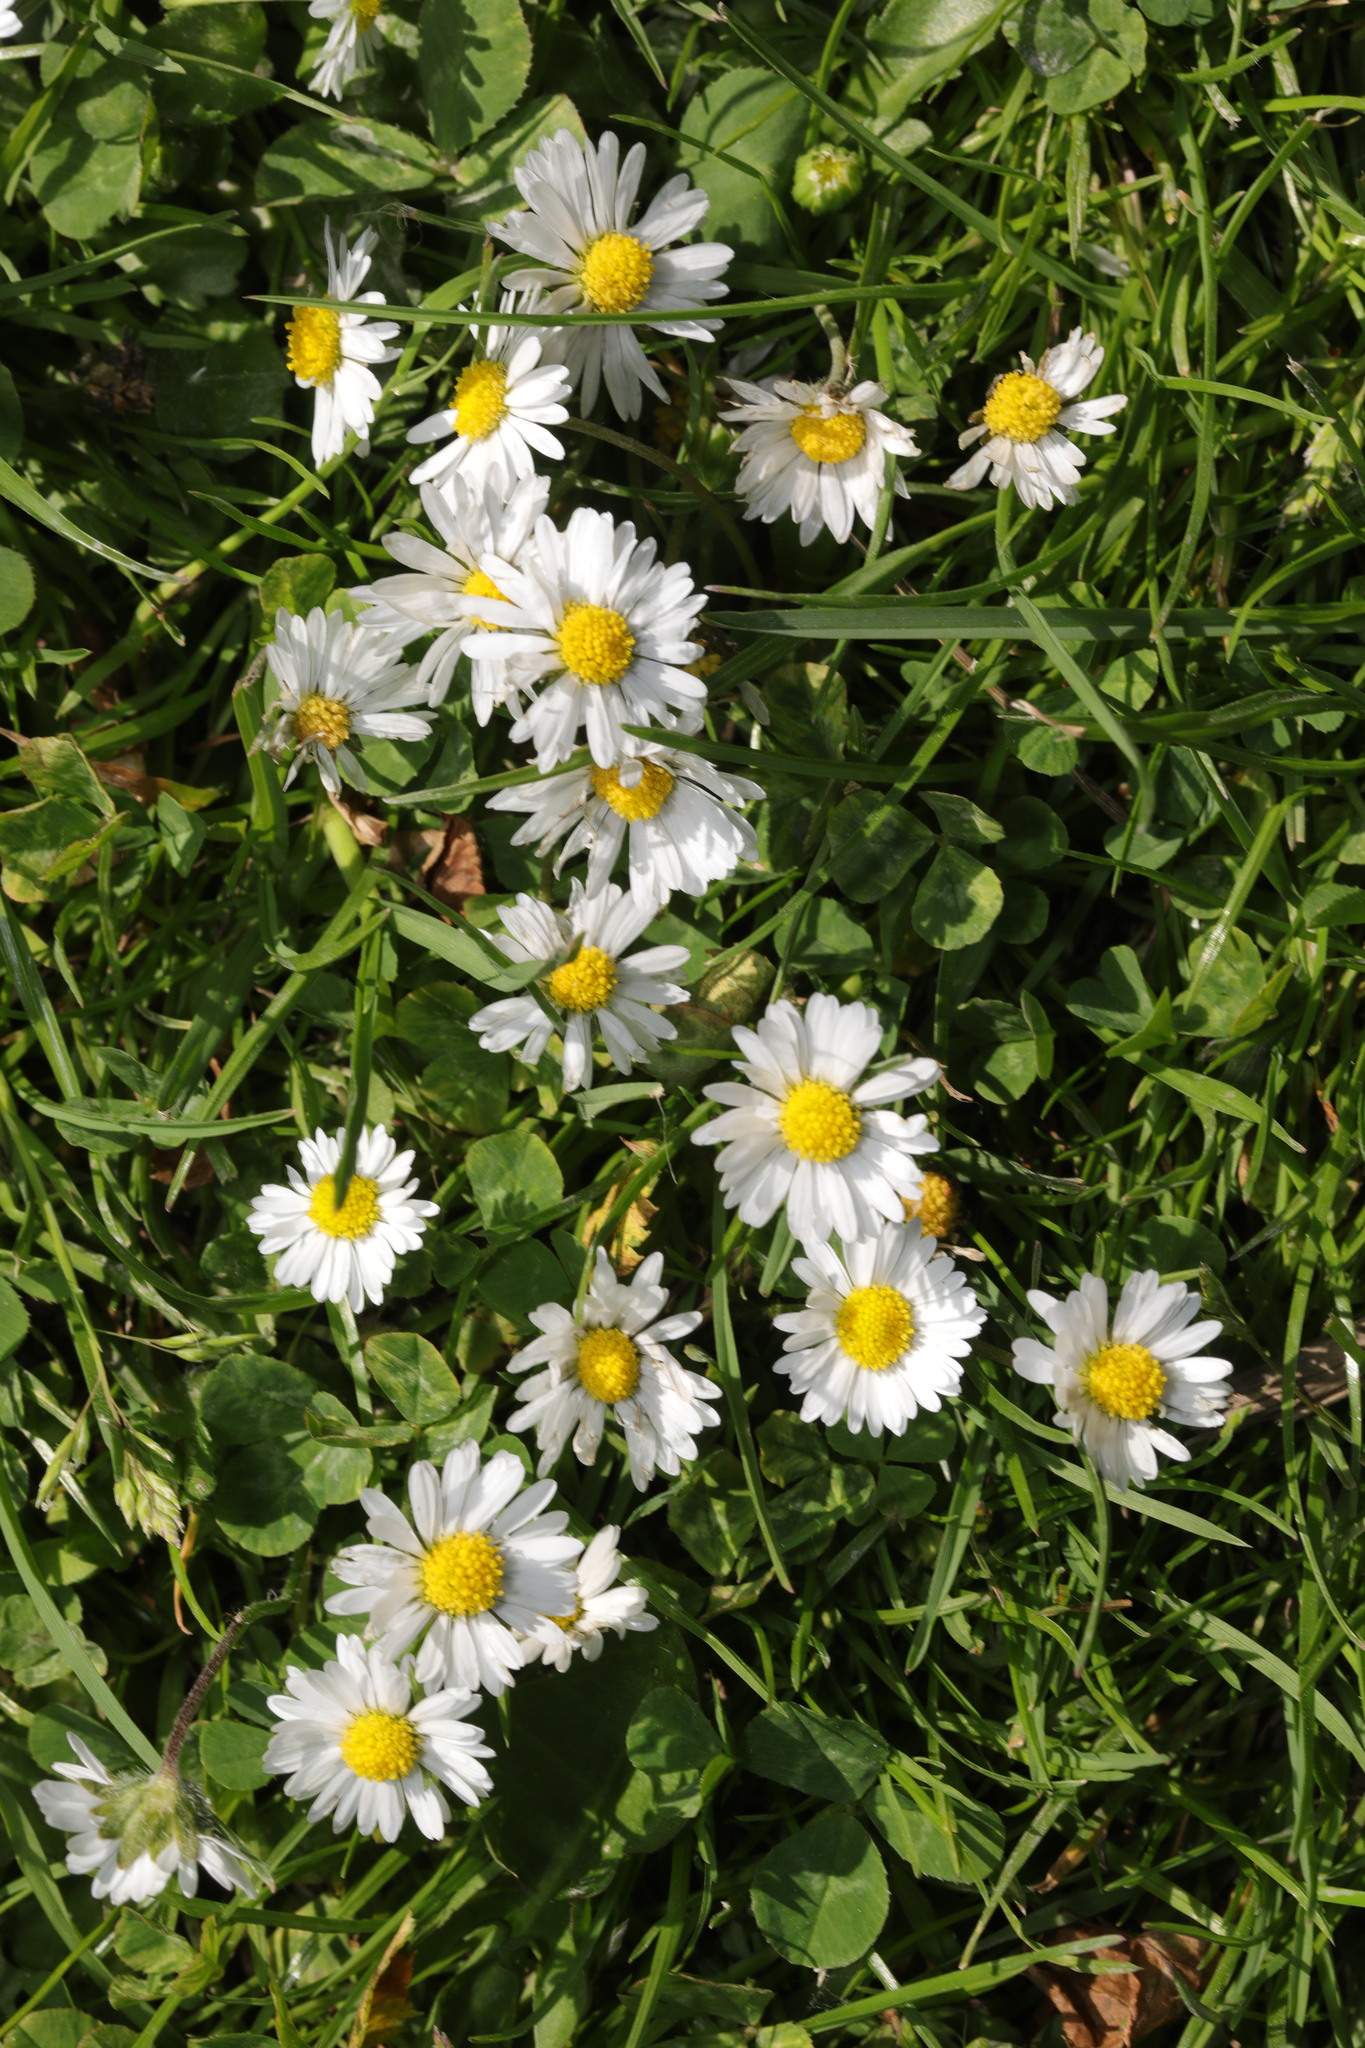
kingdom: Plantae
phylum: Tracheophyta
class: Magnoliopsida
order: Asterales
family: Asteraceae
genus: Bellis
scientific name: Bellis perennis
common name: Lawndaisy
